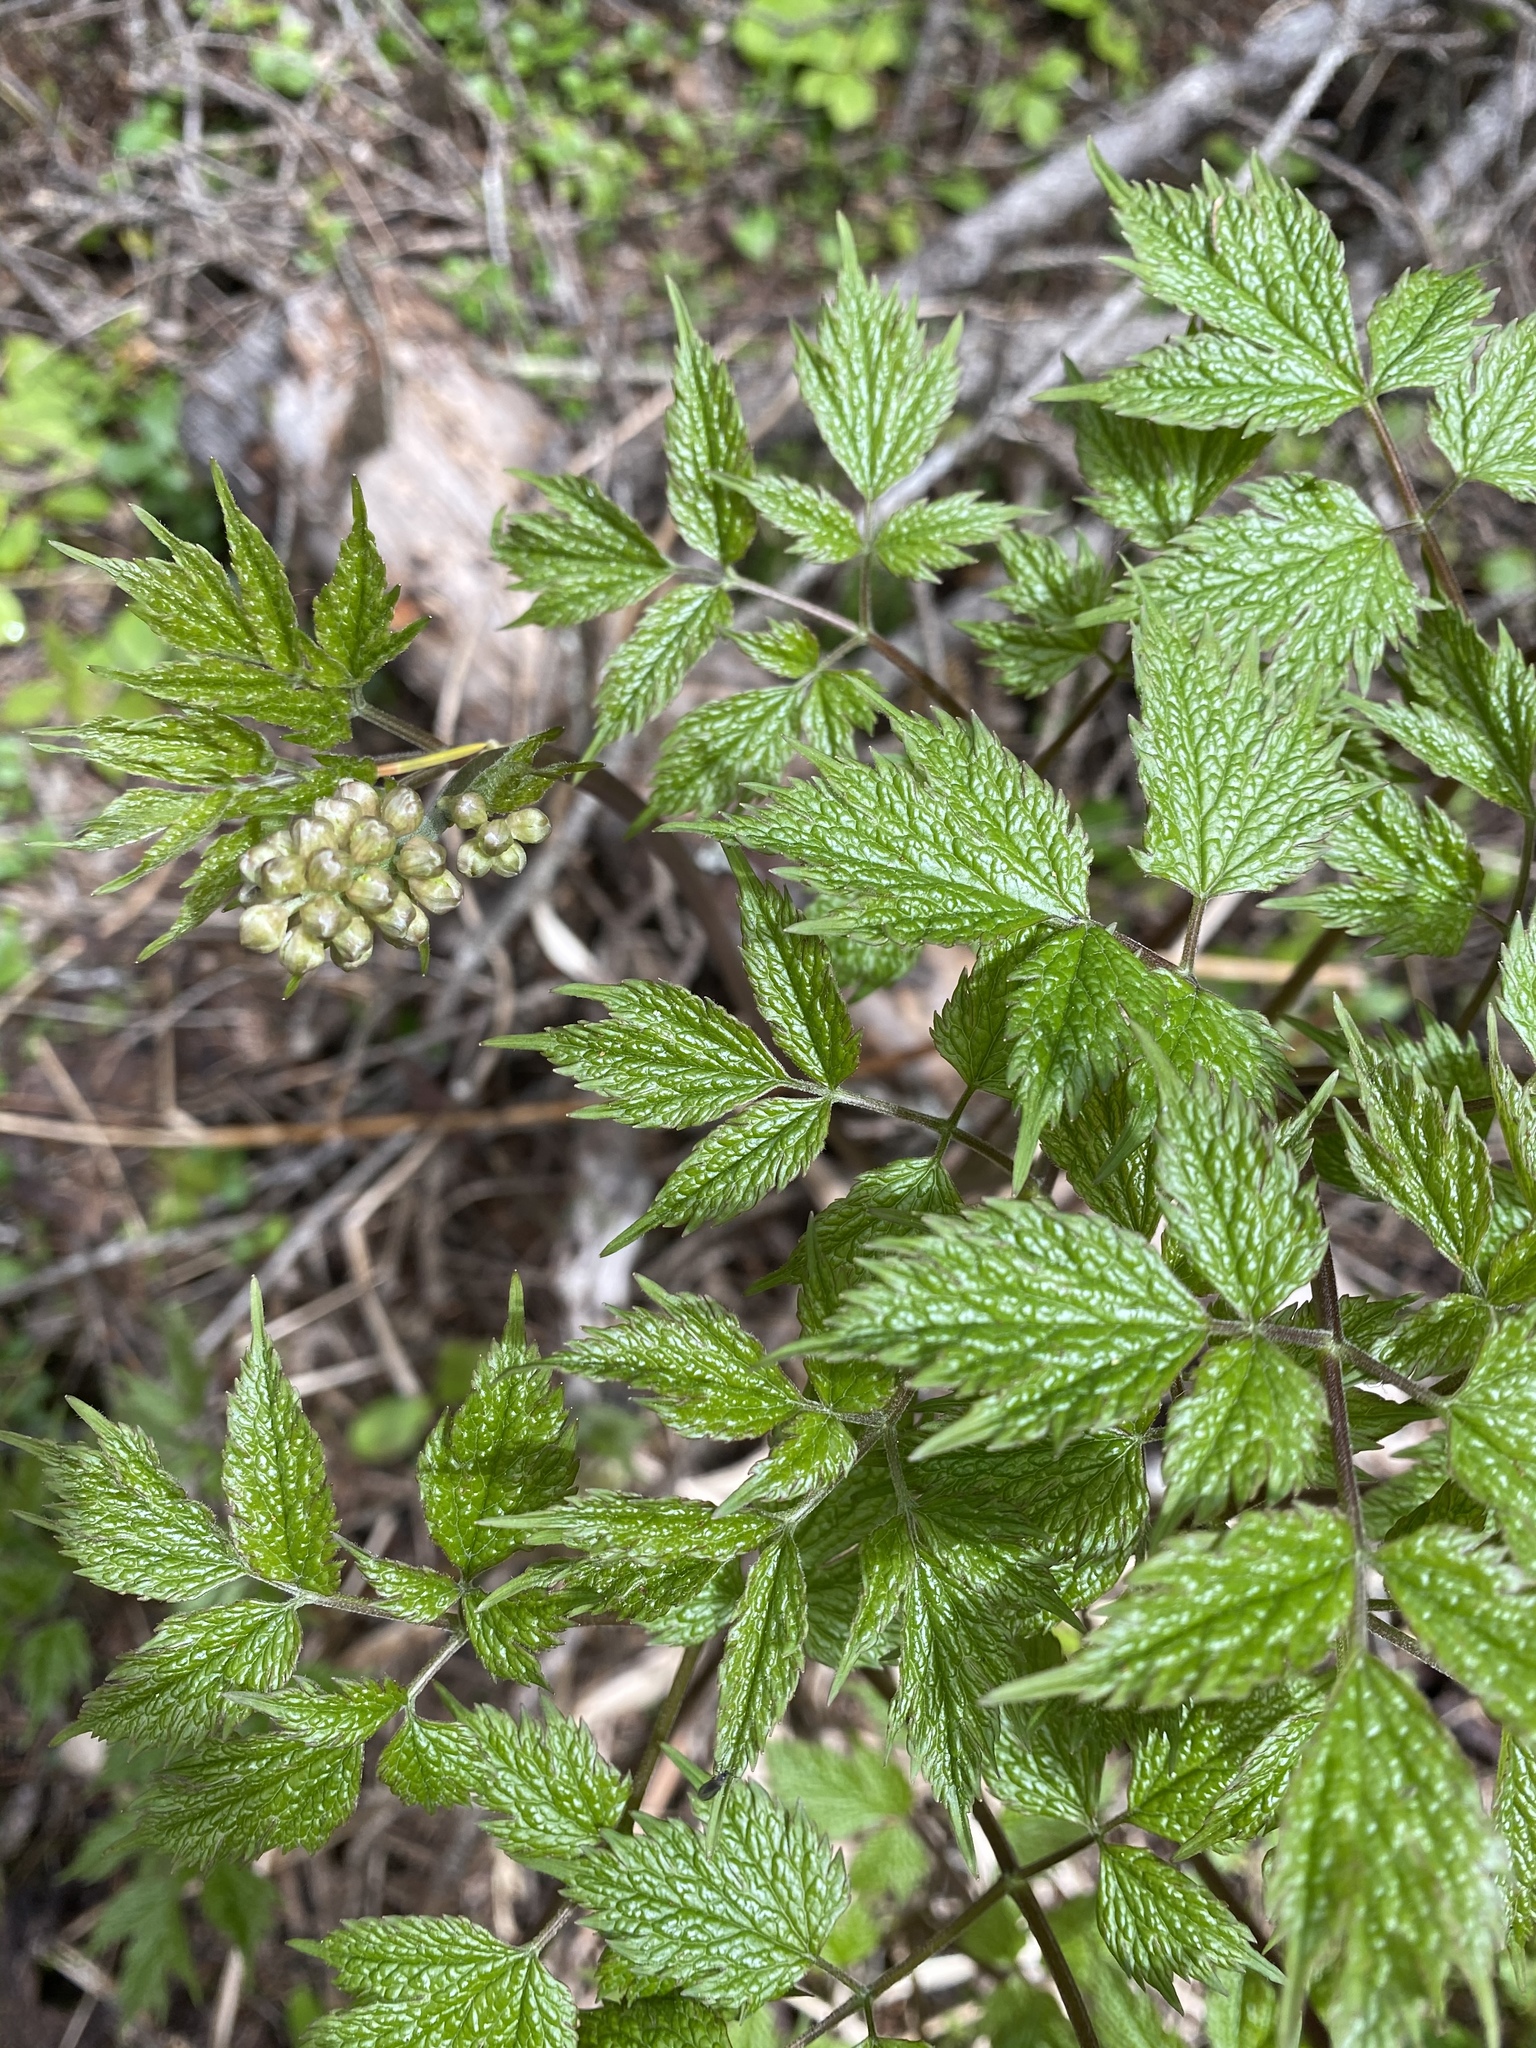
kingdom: Plantae
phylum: Tracheophyta
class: Magnoliopsida
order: Ranunculales
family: Ranunculaceae
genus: Actaea
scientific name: Actaea rubra
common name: Red baneberry
